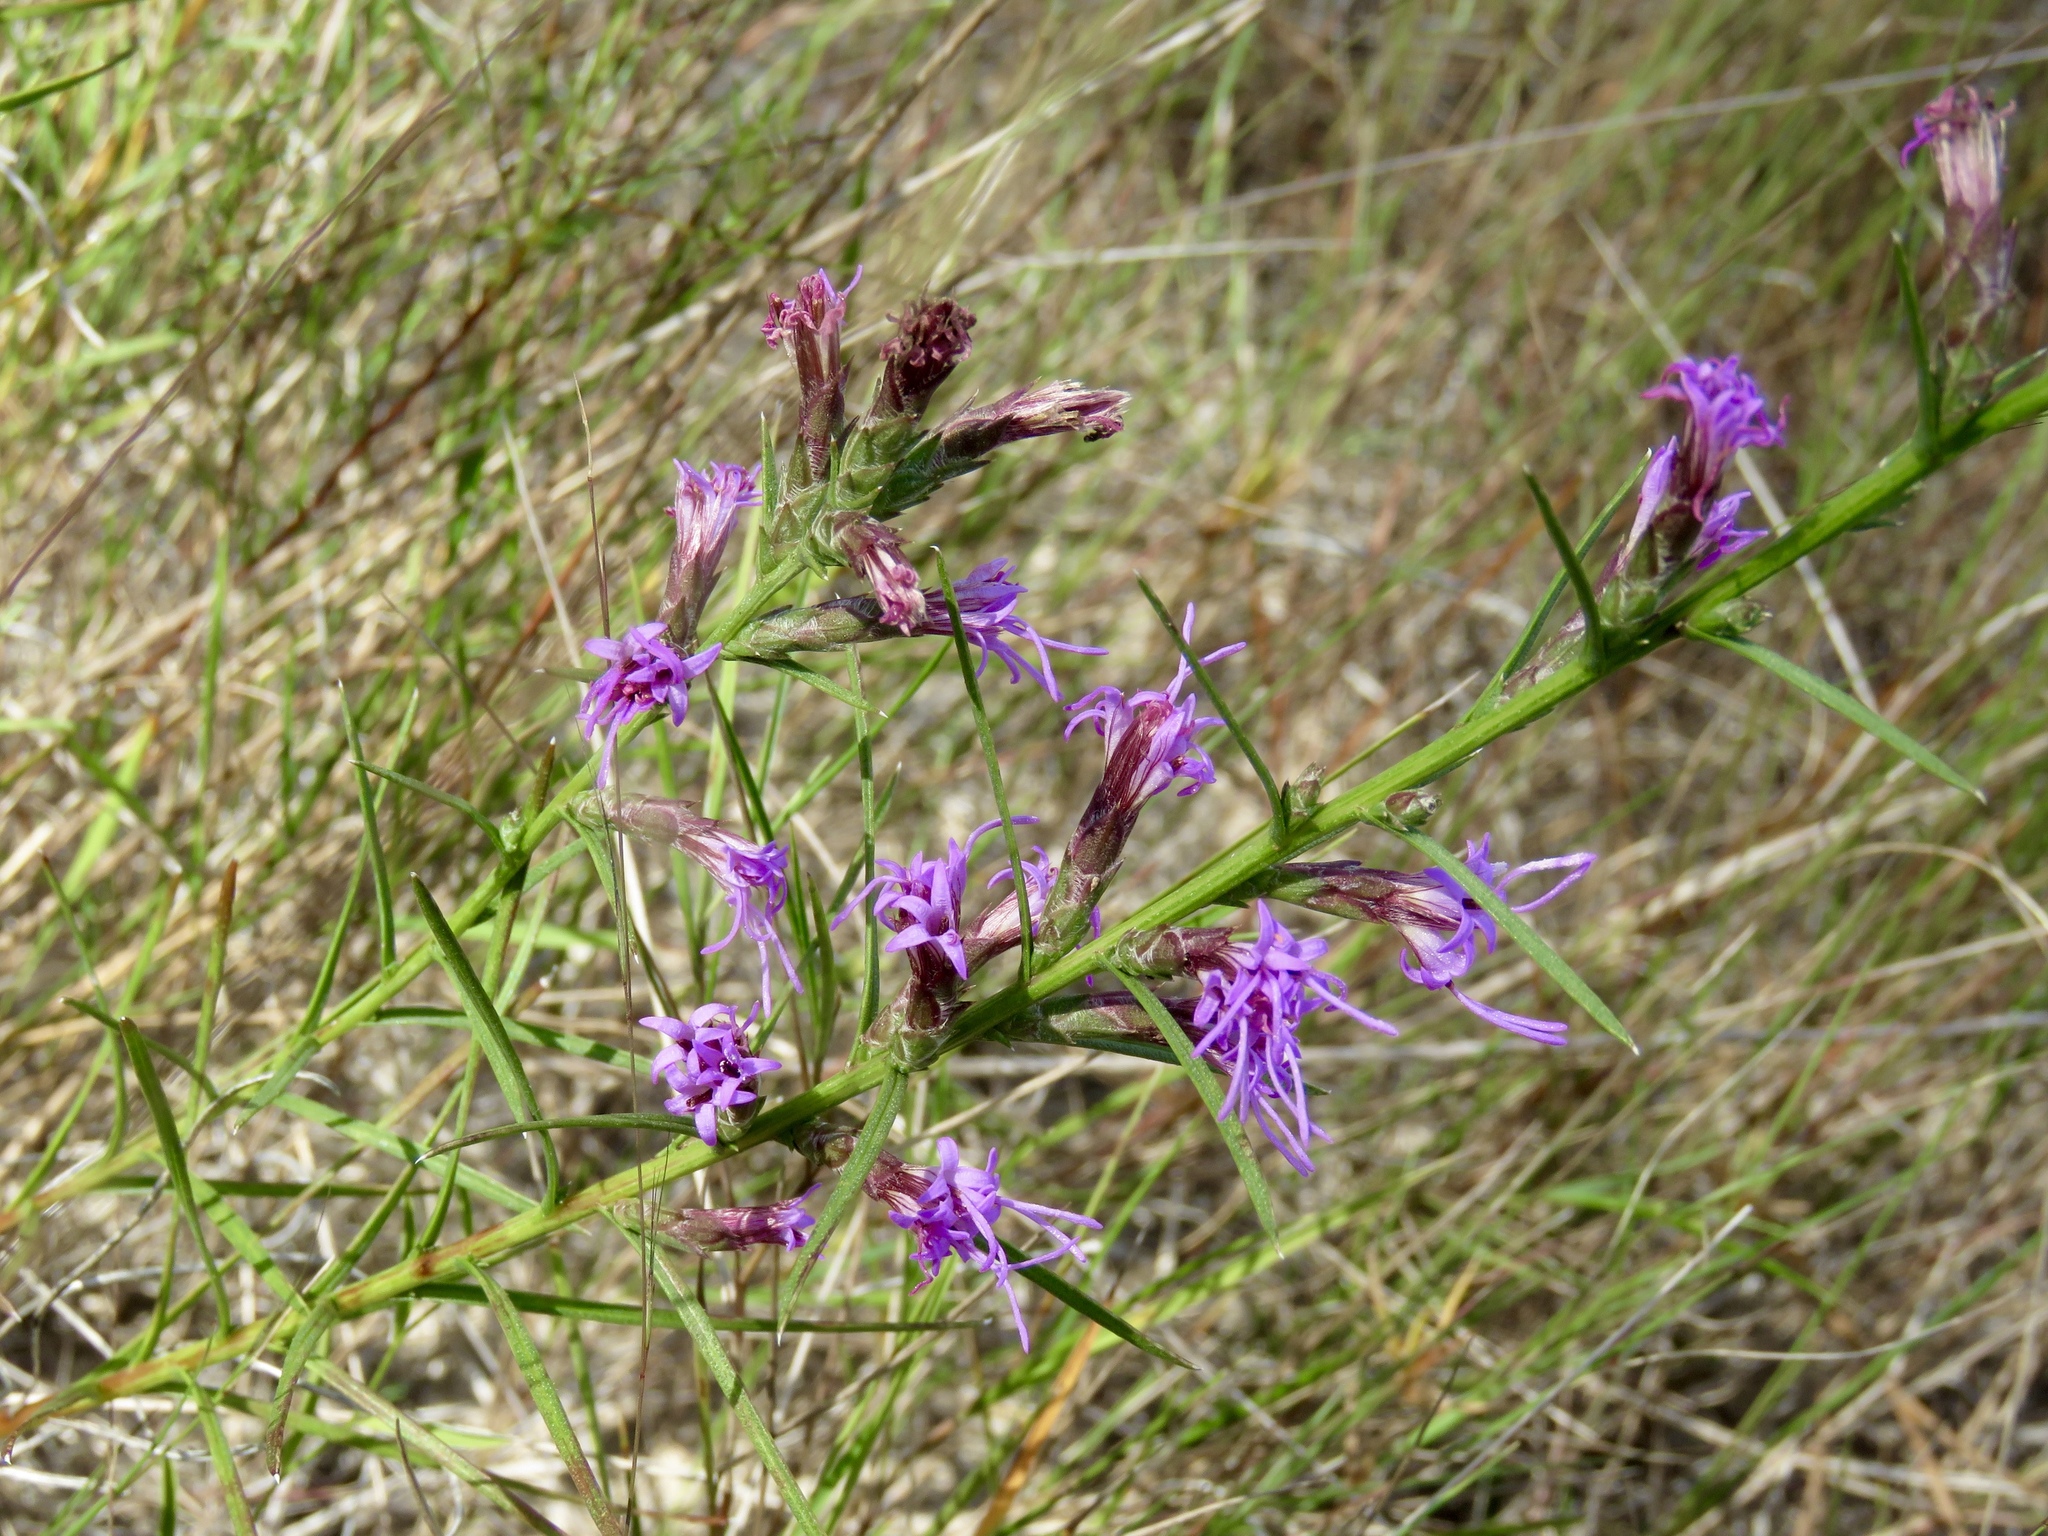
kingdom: Plantae
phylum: Tracheophyta
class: Magnoliopsida
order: Asterales
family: Asteraceae
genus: Liatris
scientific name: Liatris punctata
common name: Dotted gayfeather
